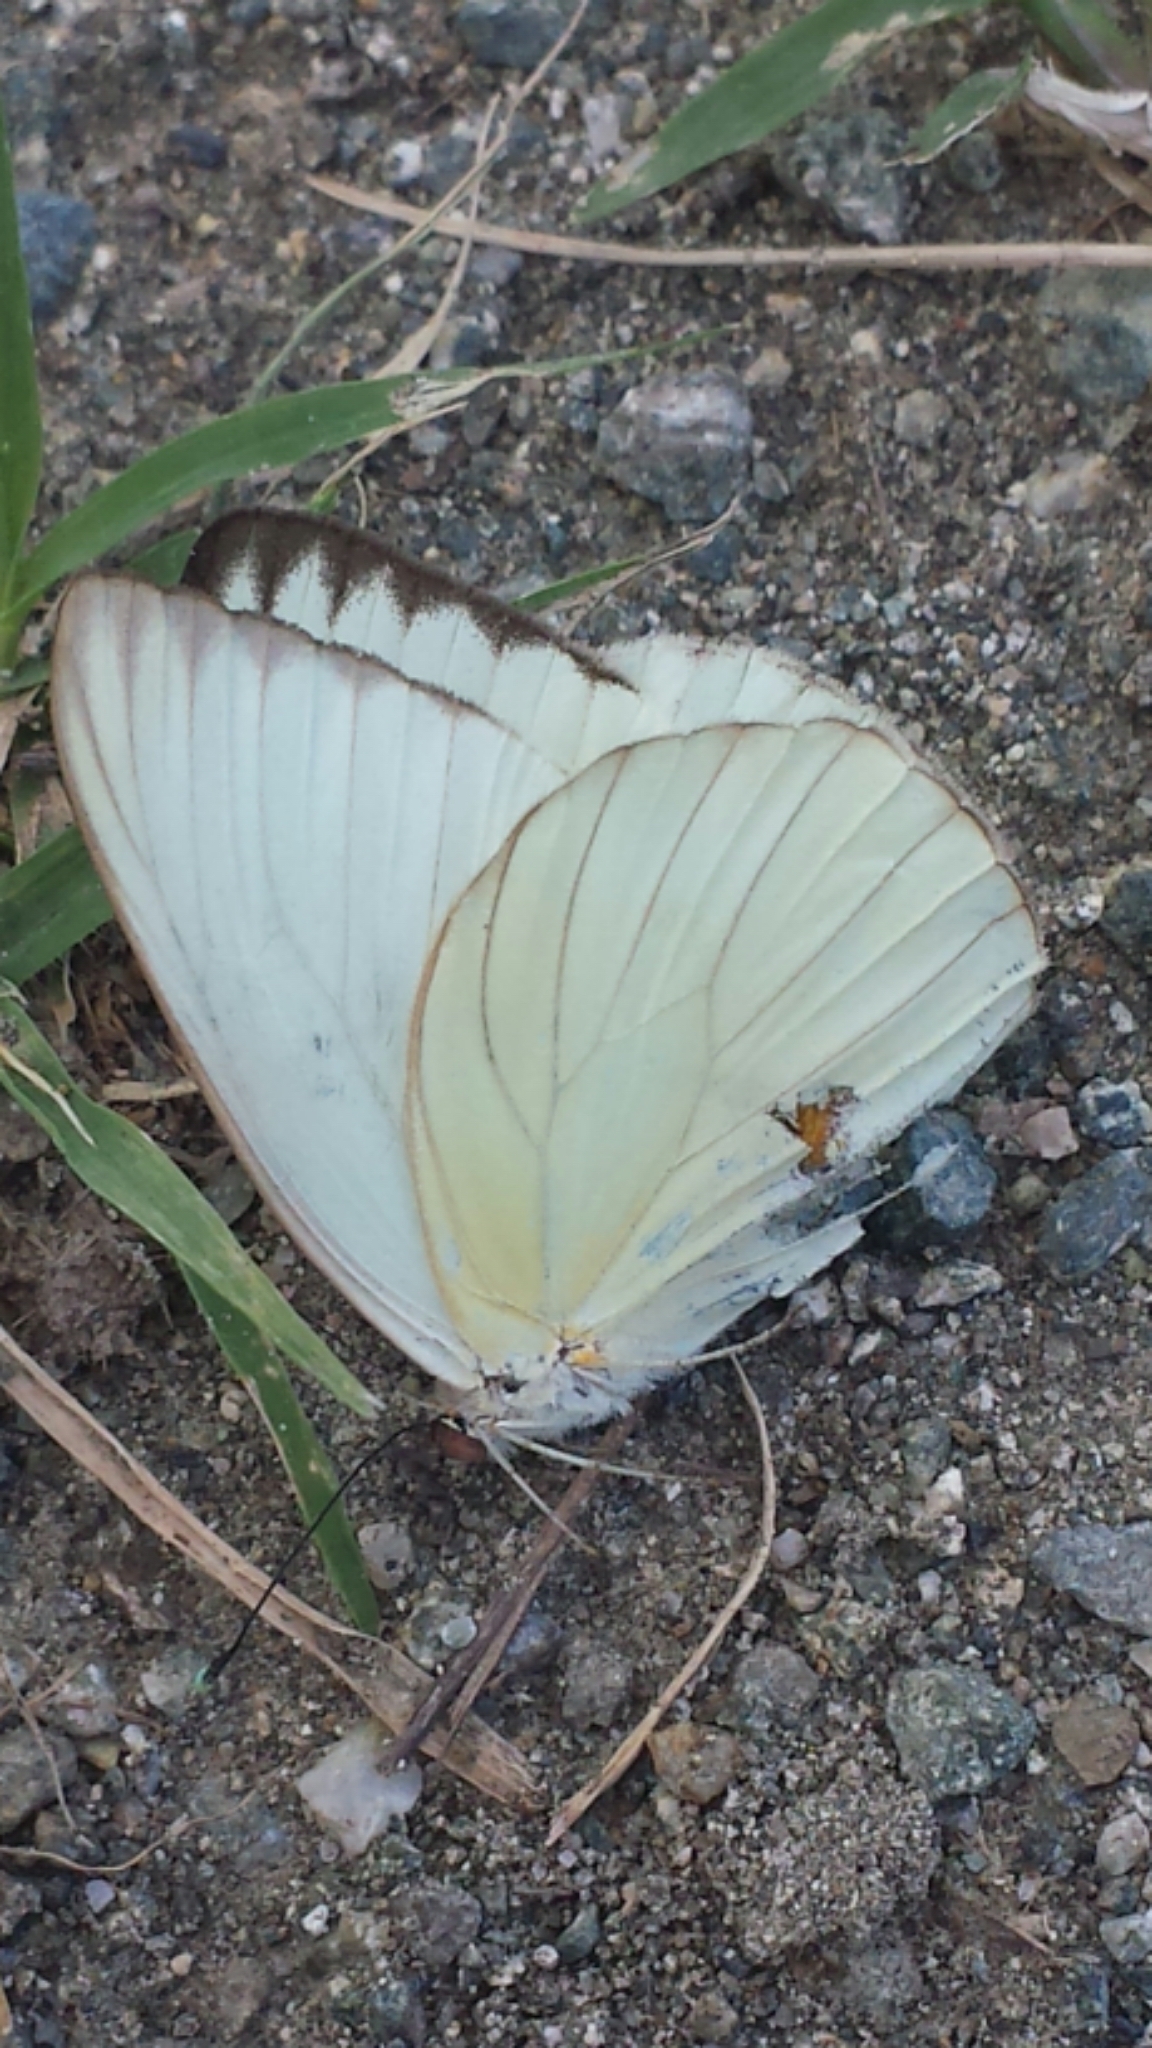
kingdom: Animalia
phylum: Arthropoda
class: Insecta
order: Lepidoptera
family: Pieridae
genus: Ascia
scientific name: Ascia monuste
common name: Great southern white
